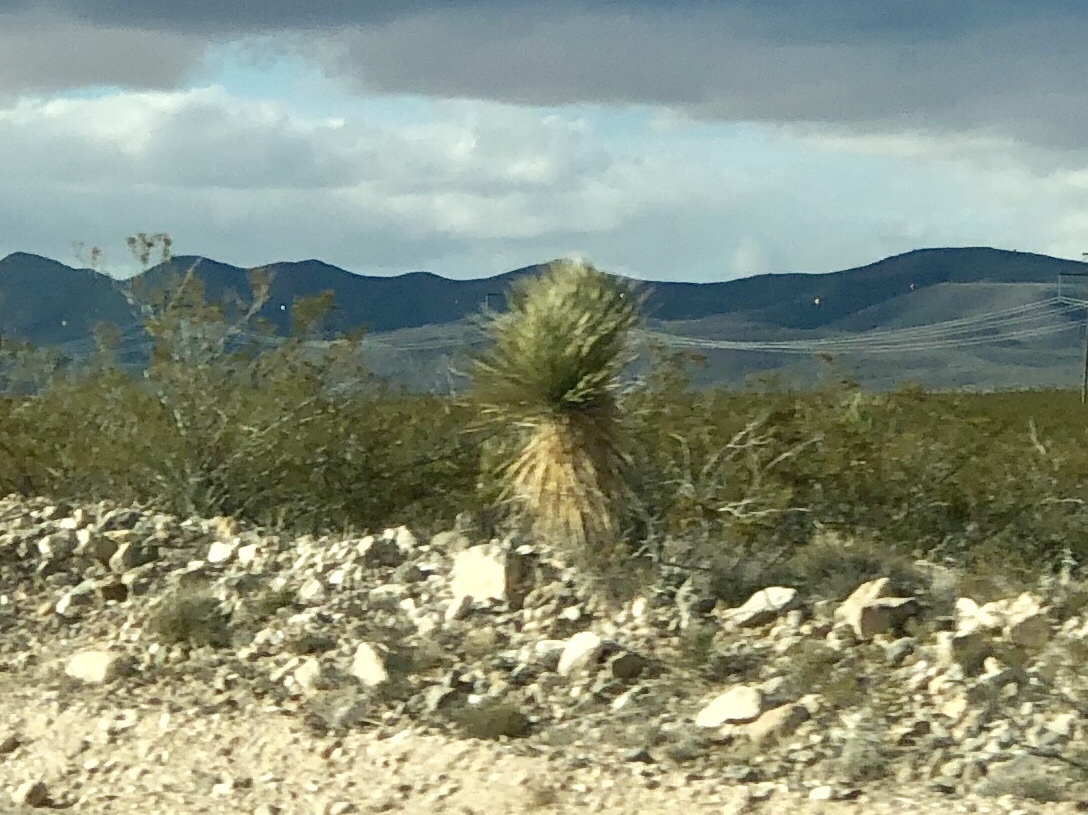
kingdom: Plantae
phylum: Tracheophyta
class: Liliopsida
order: Asparagales
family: Asparagaceae
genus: Yucca
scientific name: Yucca elata
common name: Palmella
